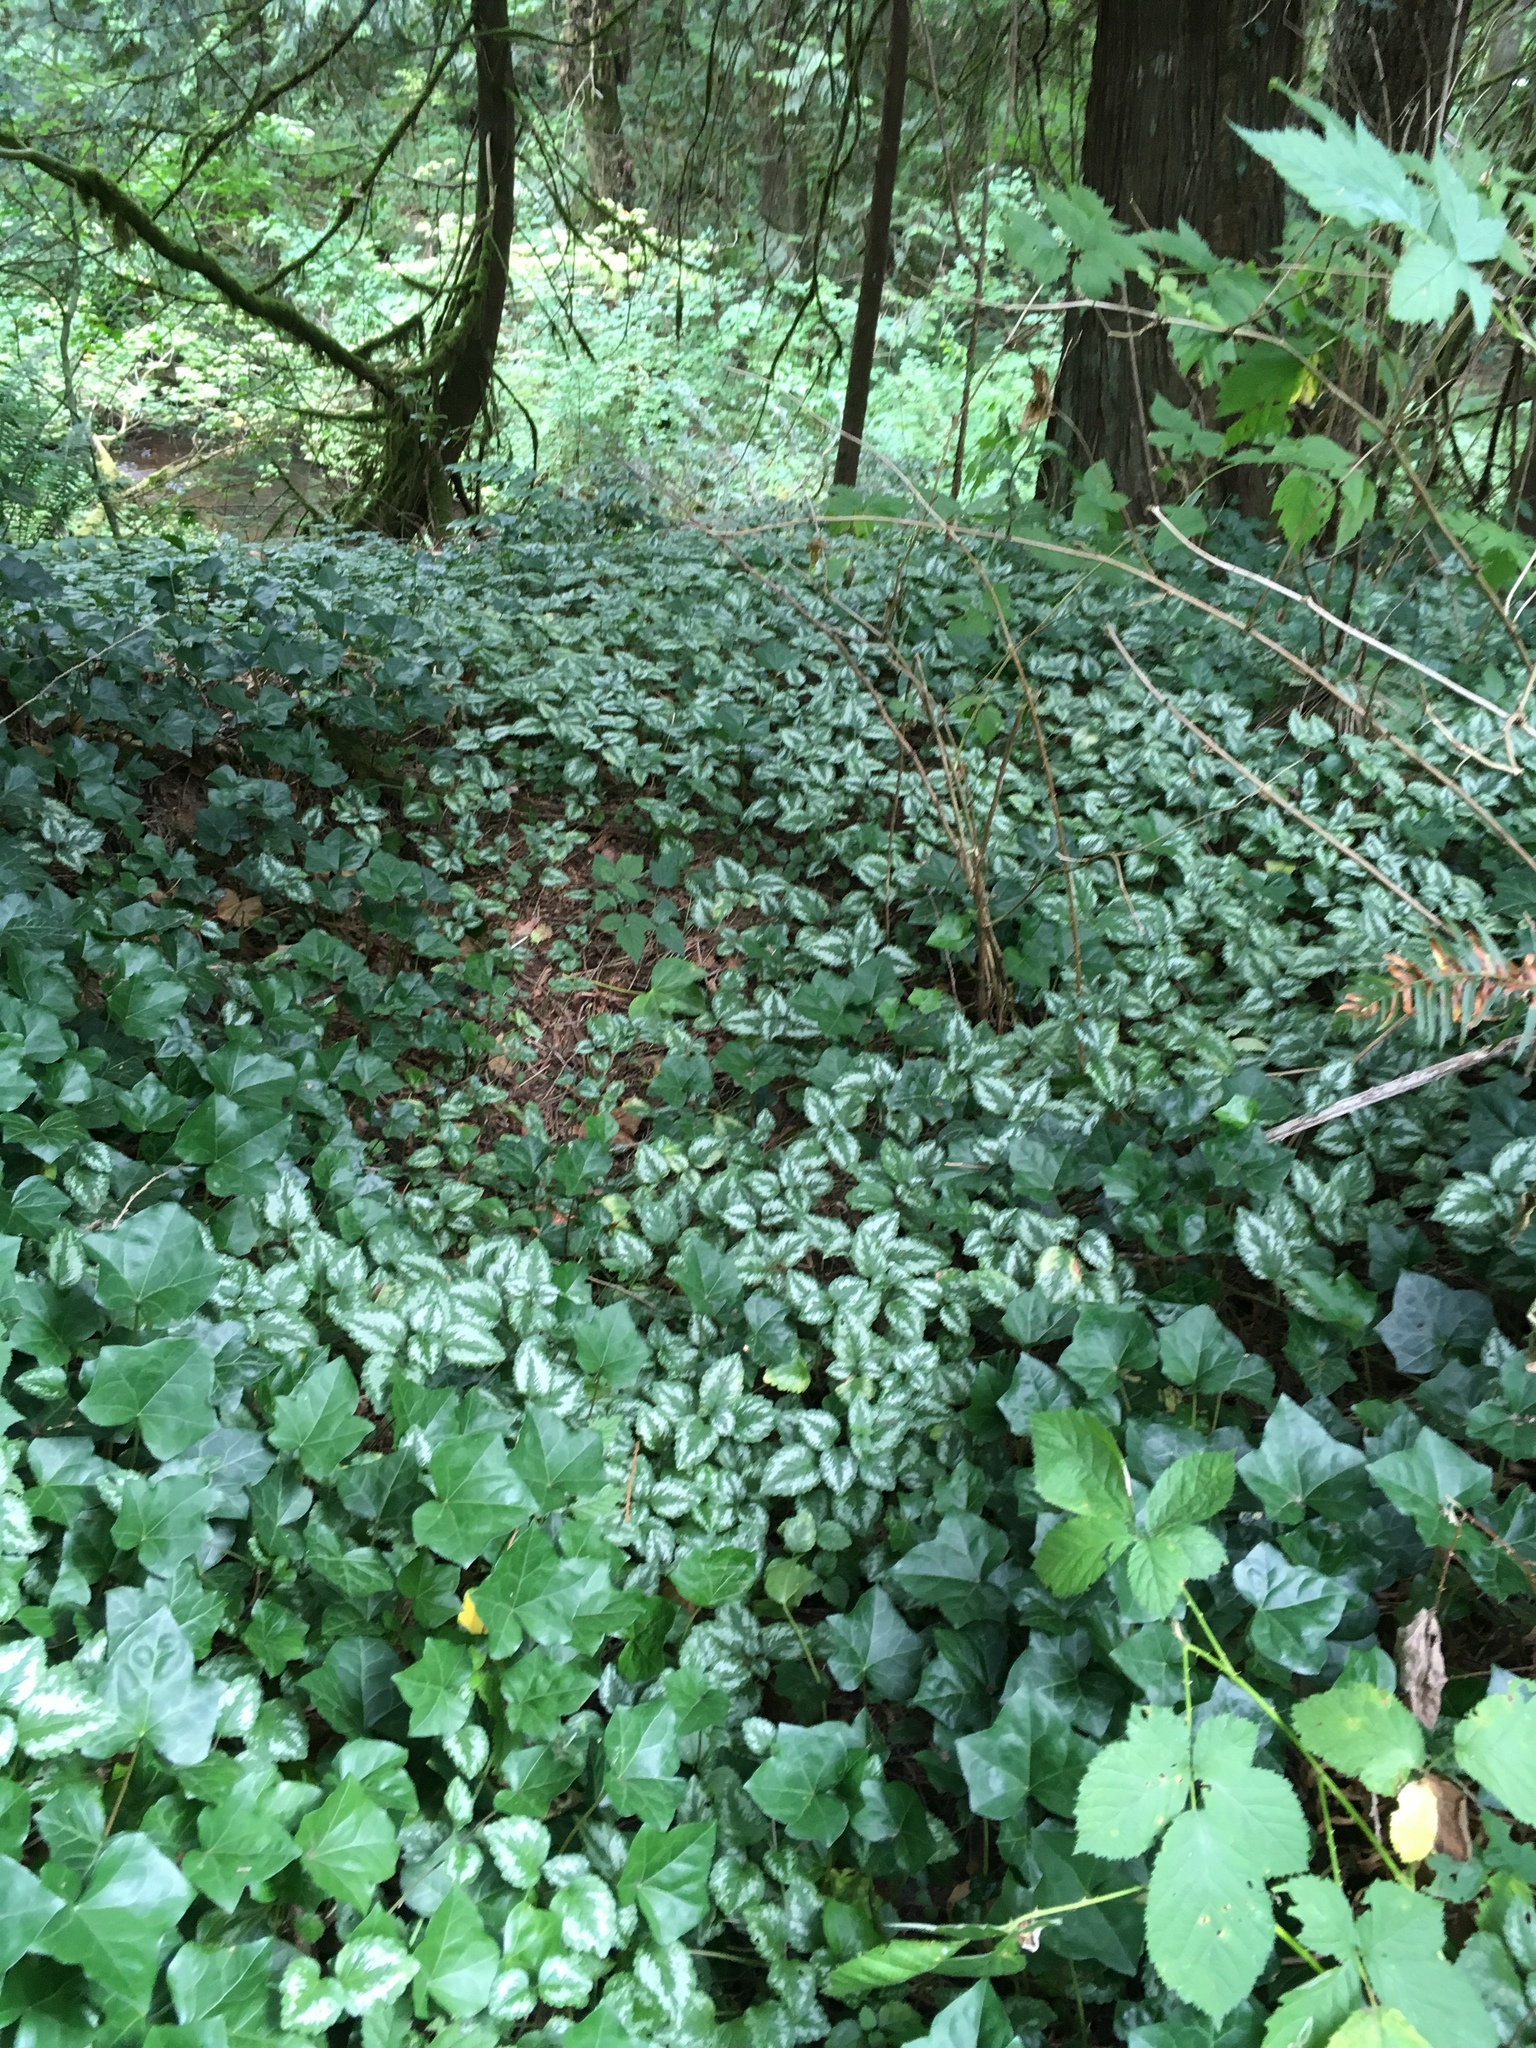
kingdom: Plantae
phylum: Tracheophyta
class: Magnoliopsida
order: Lamiales
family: Lamiaceae
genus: Lamium
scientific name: Lamium galeobdolon
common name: Yellow archangel
